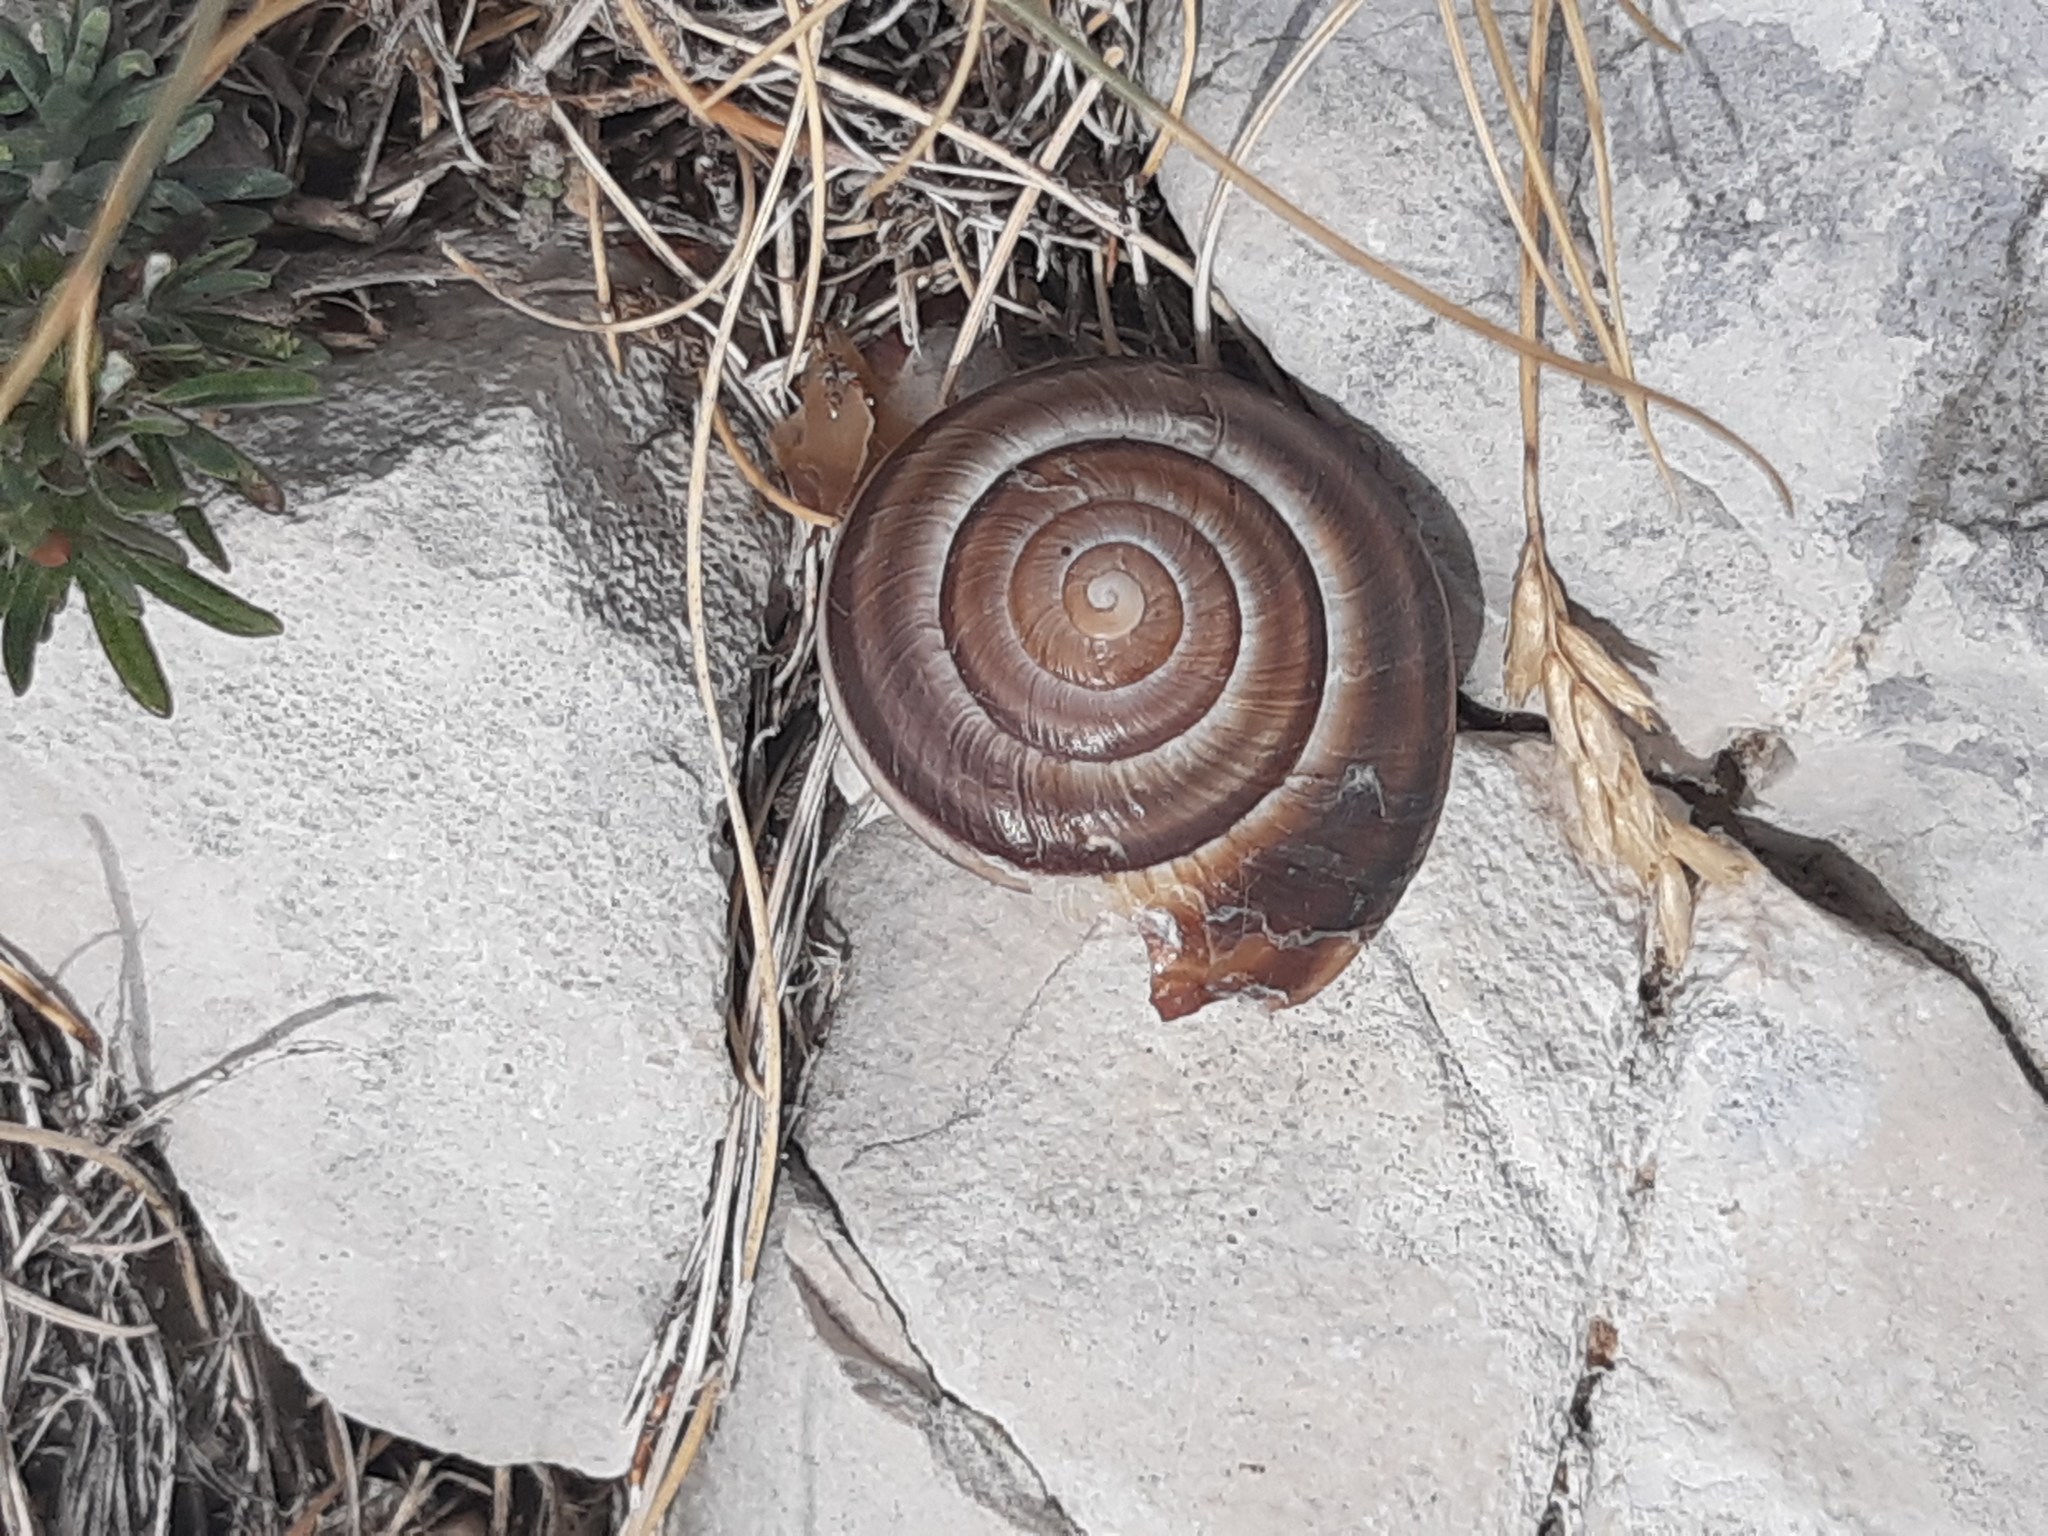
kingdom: Animalia
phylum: Mollusca
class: Gastropoda
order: Stylommatophora
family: Helicidae
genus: Dinarica
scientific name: Dinarica pouzolzii
